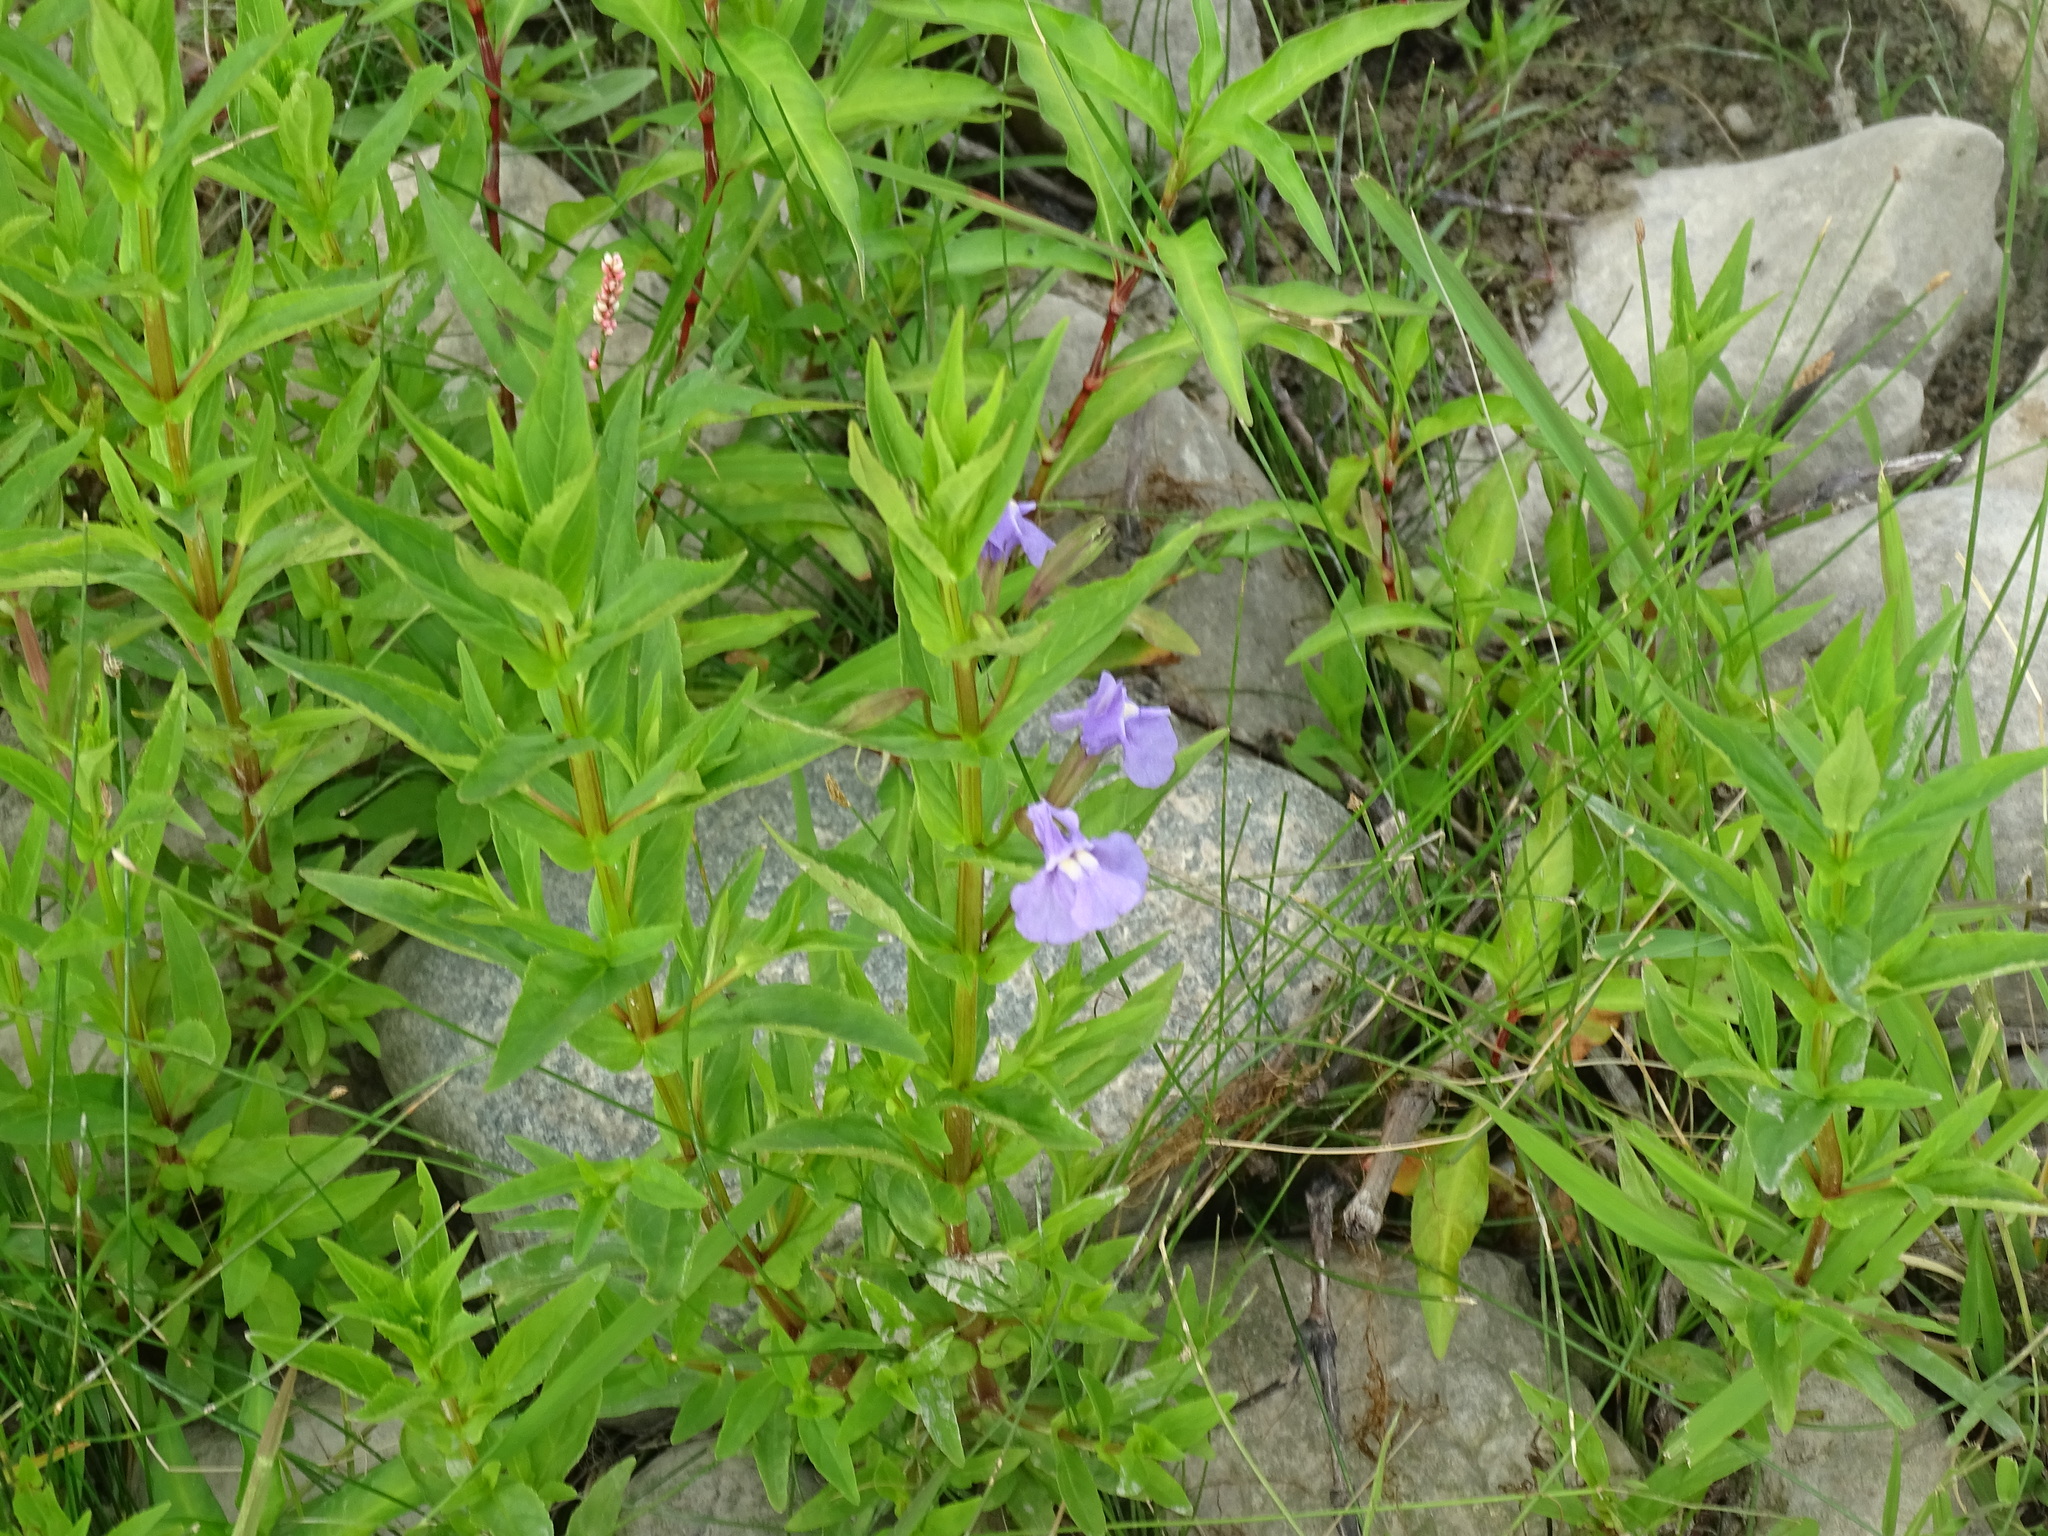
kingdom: Plantae
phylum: Tracheophyta
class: Magnoliopsida
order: Lamiales
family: Phrymaceae
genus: Mimulus
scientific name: Mimulus ringens
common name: Allegheny monkeyflower
